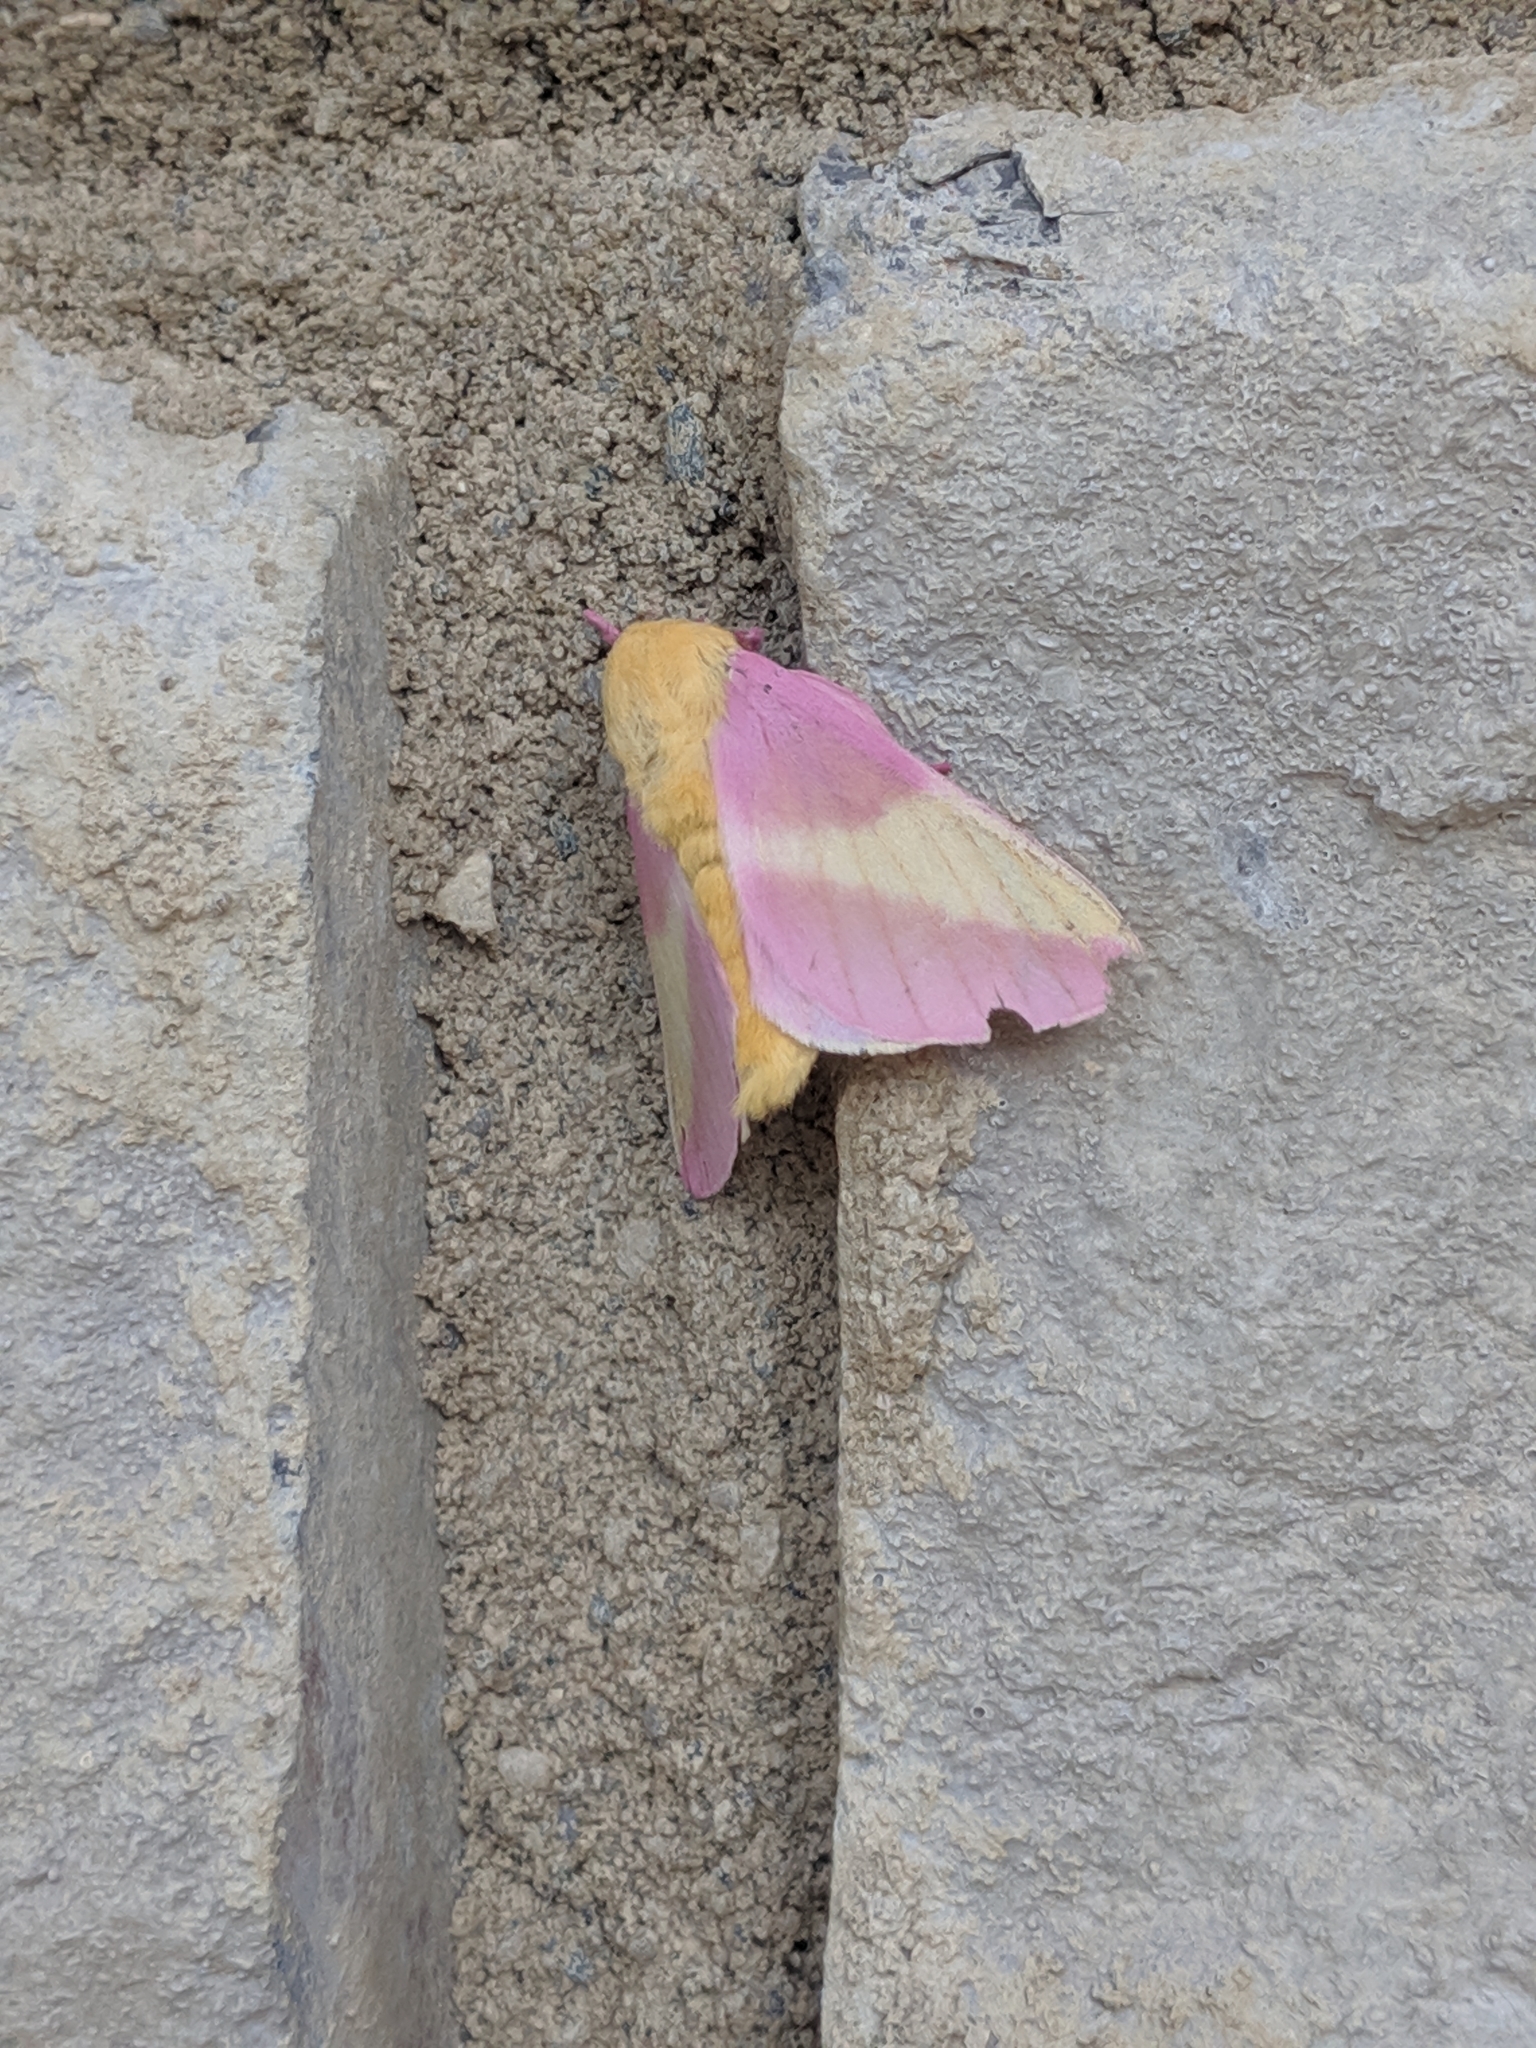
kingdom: Animalia
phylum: Arthropoda
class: Insecta
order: Lepidoptera
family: Saturniidae
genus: Dryocampa
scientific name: Dryocampa rubicunda
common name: Rosy maple moth
